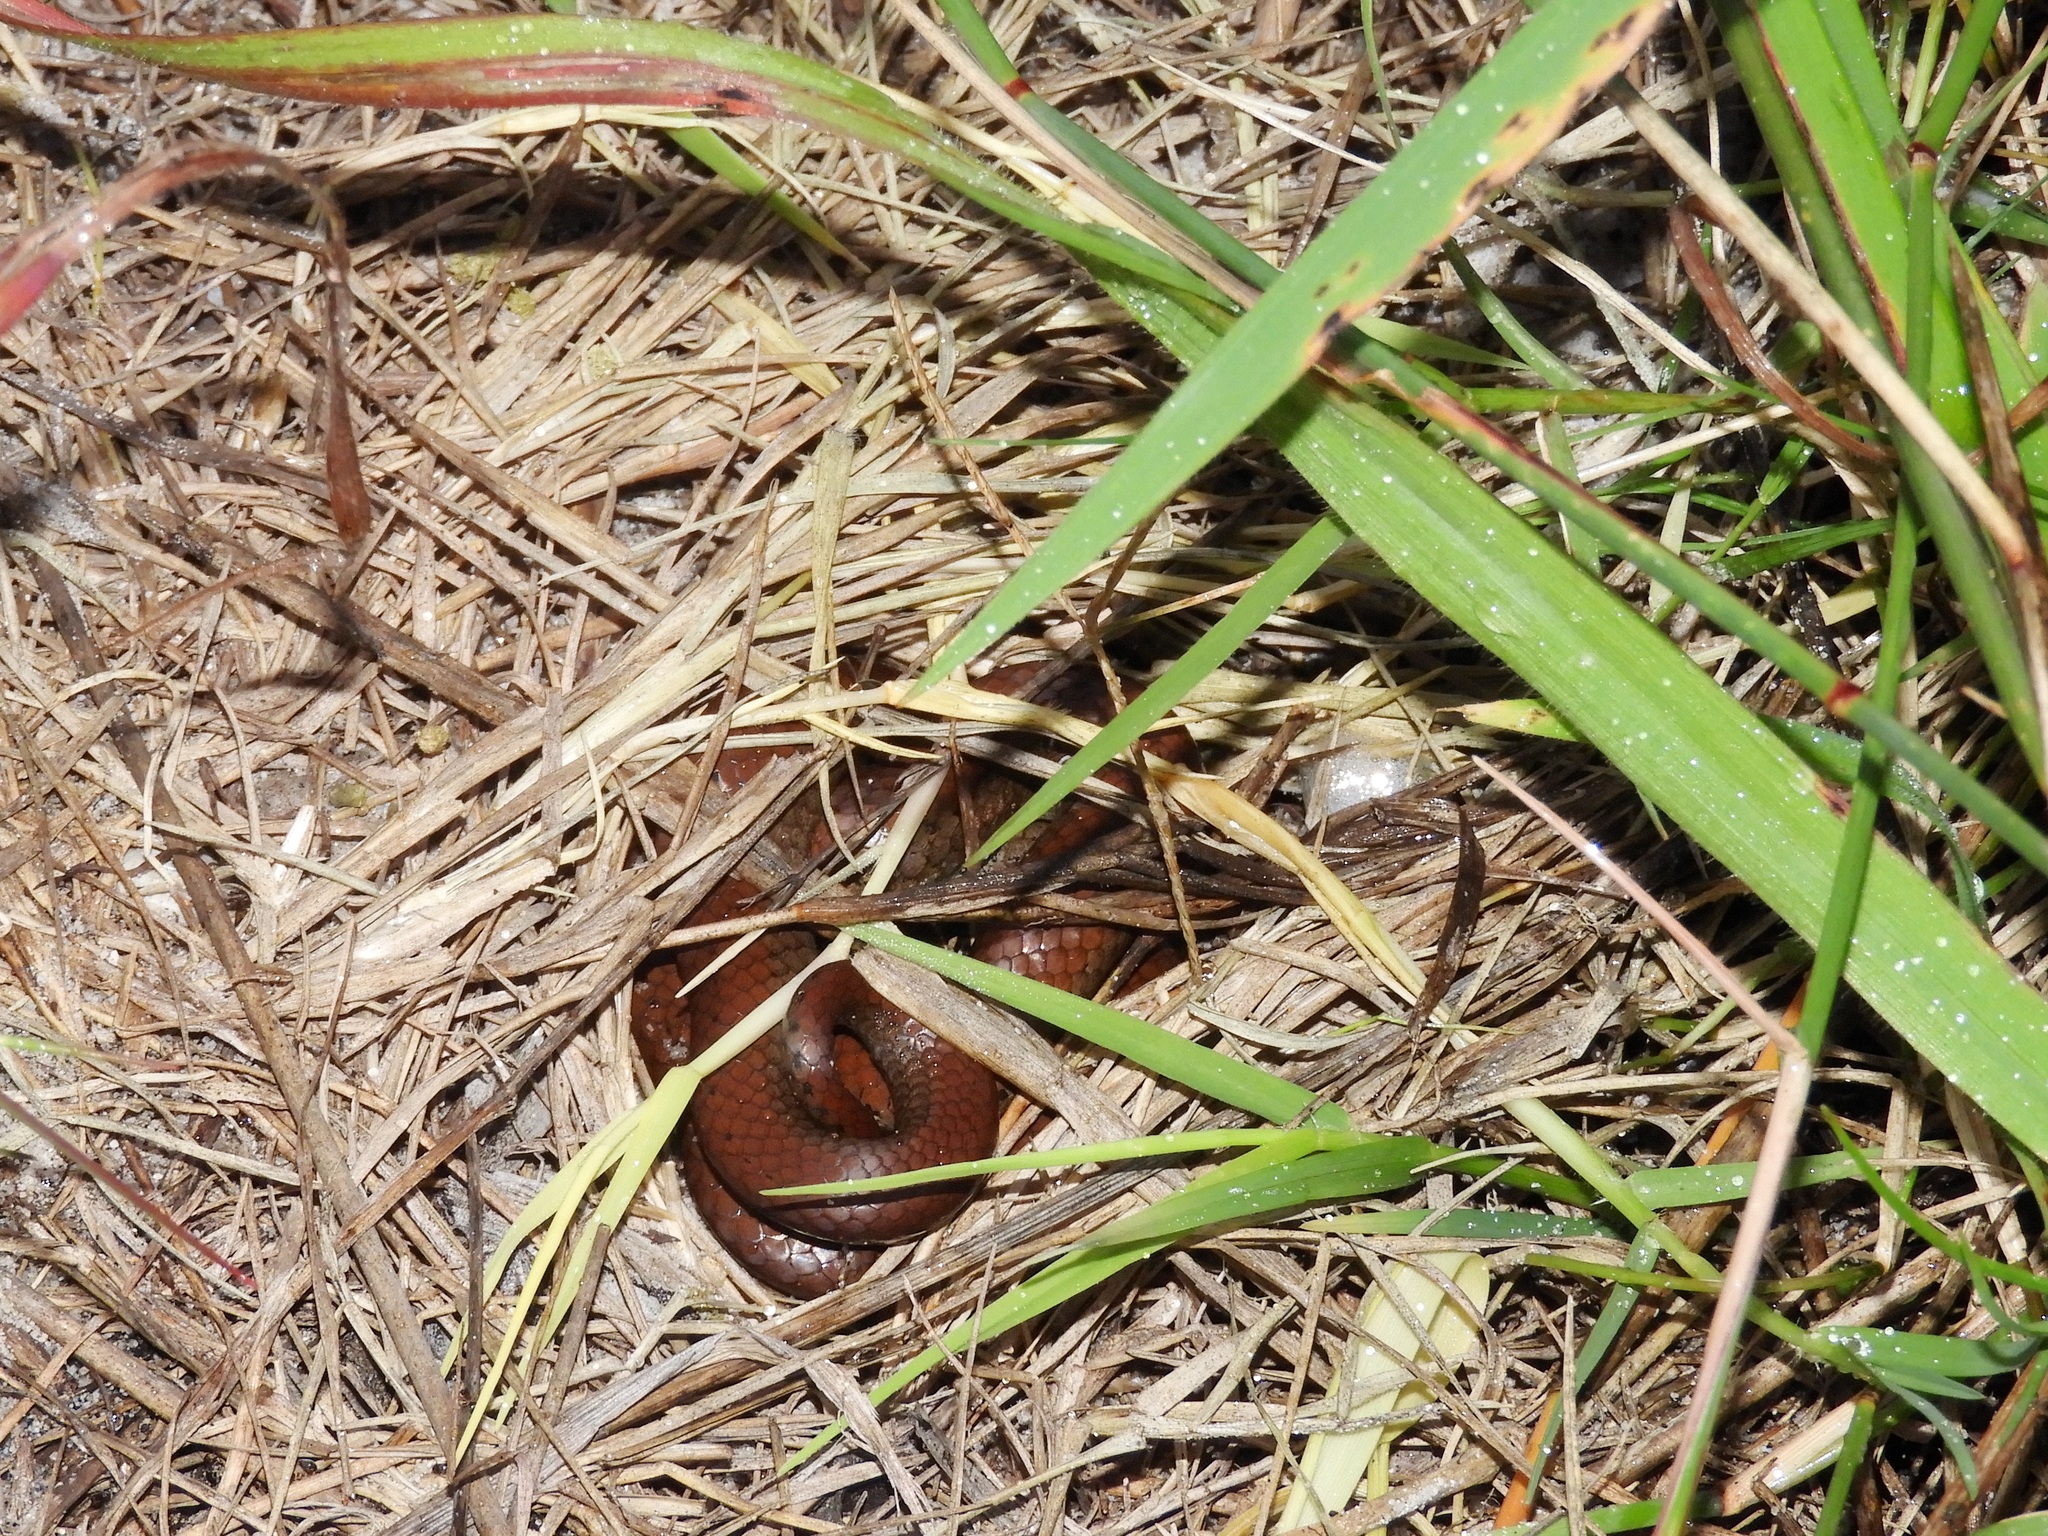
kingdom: Animalia
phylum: Chordata
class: Squamata
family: Pseudoxyrhophiidae
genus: Duberria
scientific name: Duberria lutrix
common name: Common slug eater
